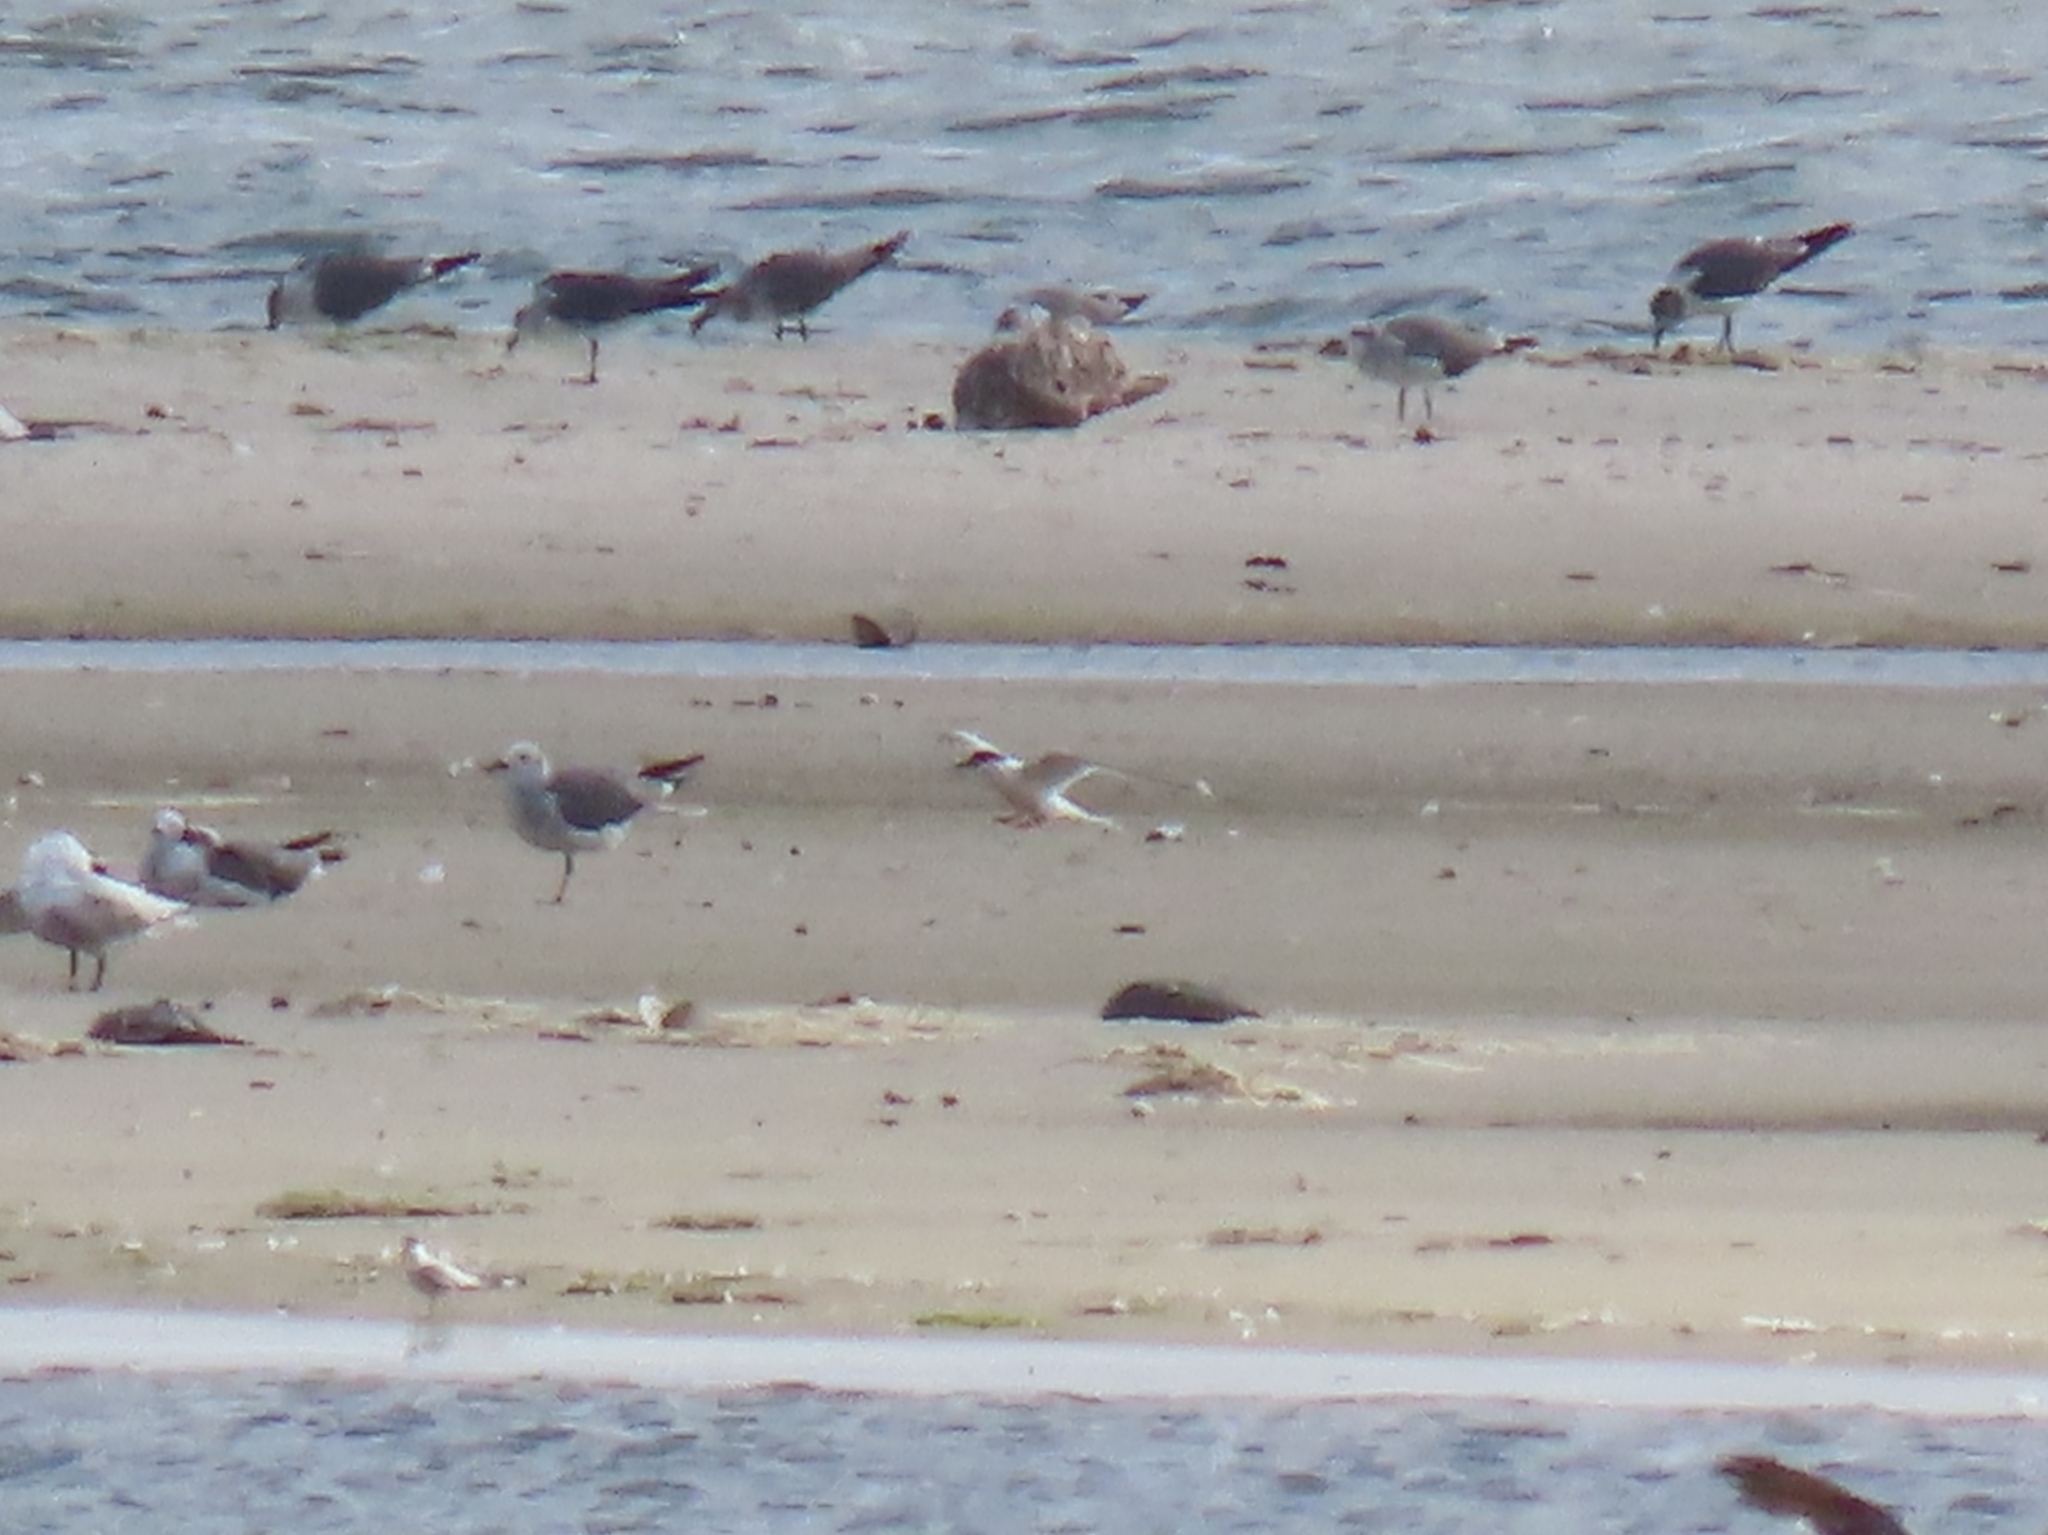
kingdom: Animalia
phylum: Chordata
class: Aves
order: Charadriiformes
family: Laridae
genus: Sterna
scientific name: Sterna dougallii
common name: Roseate tern
